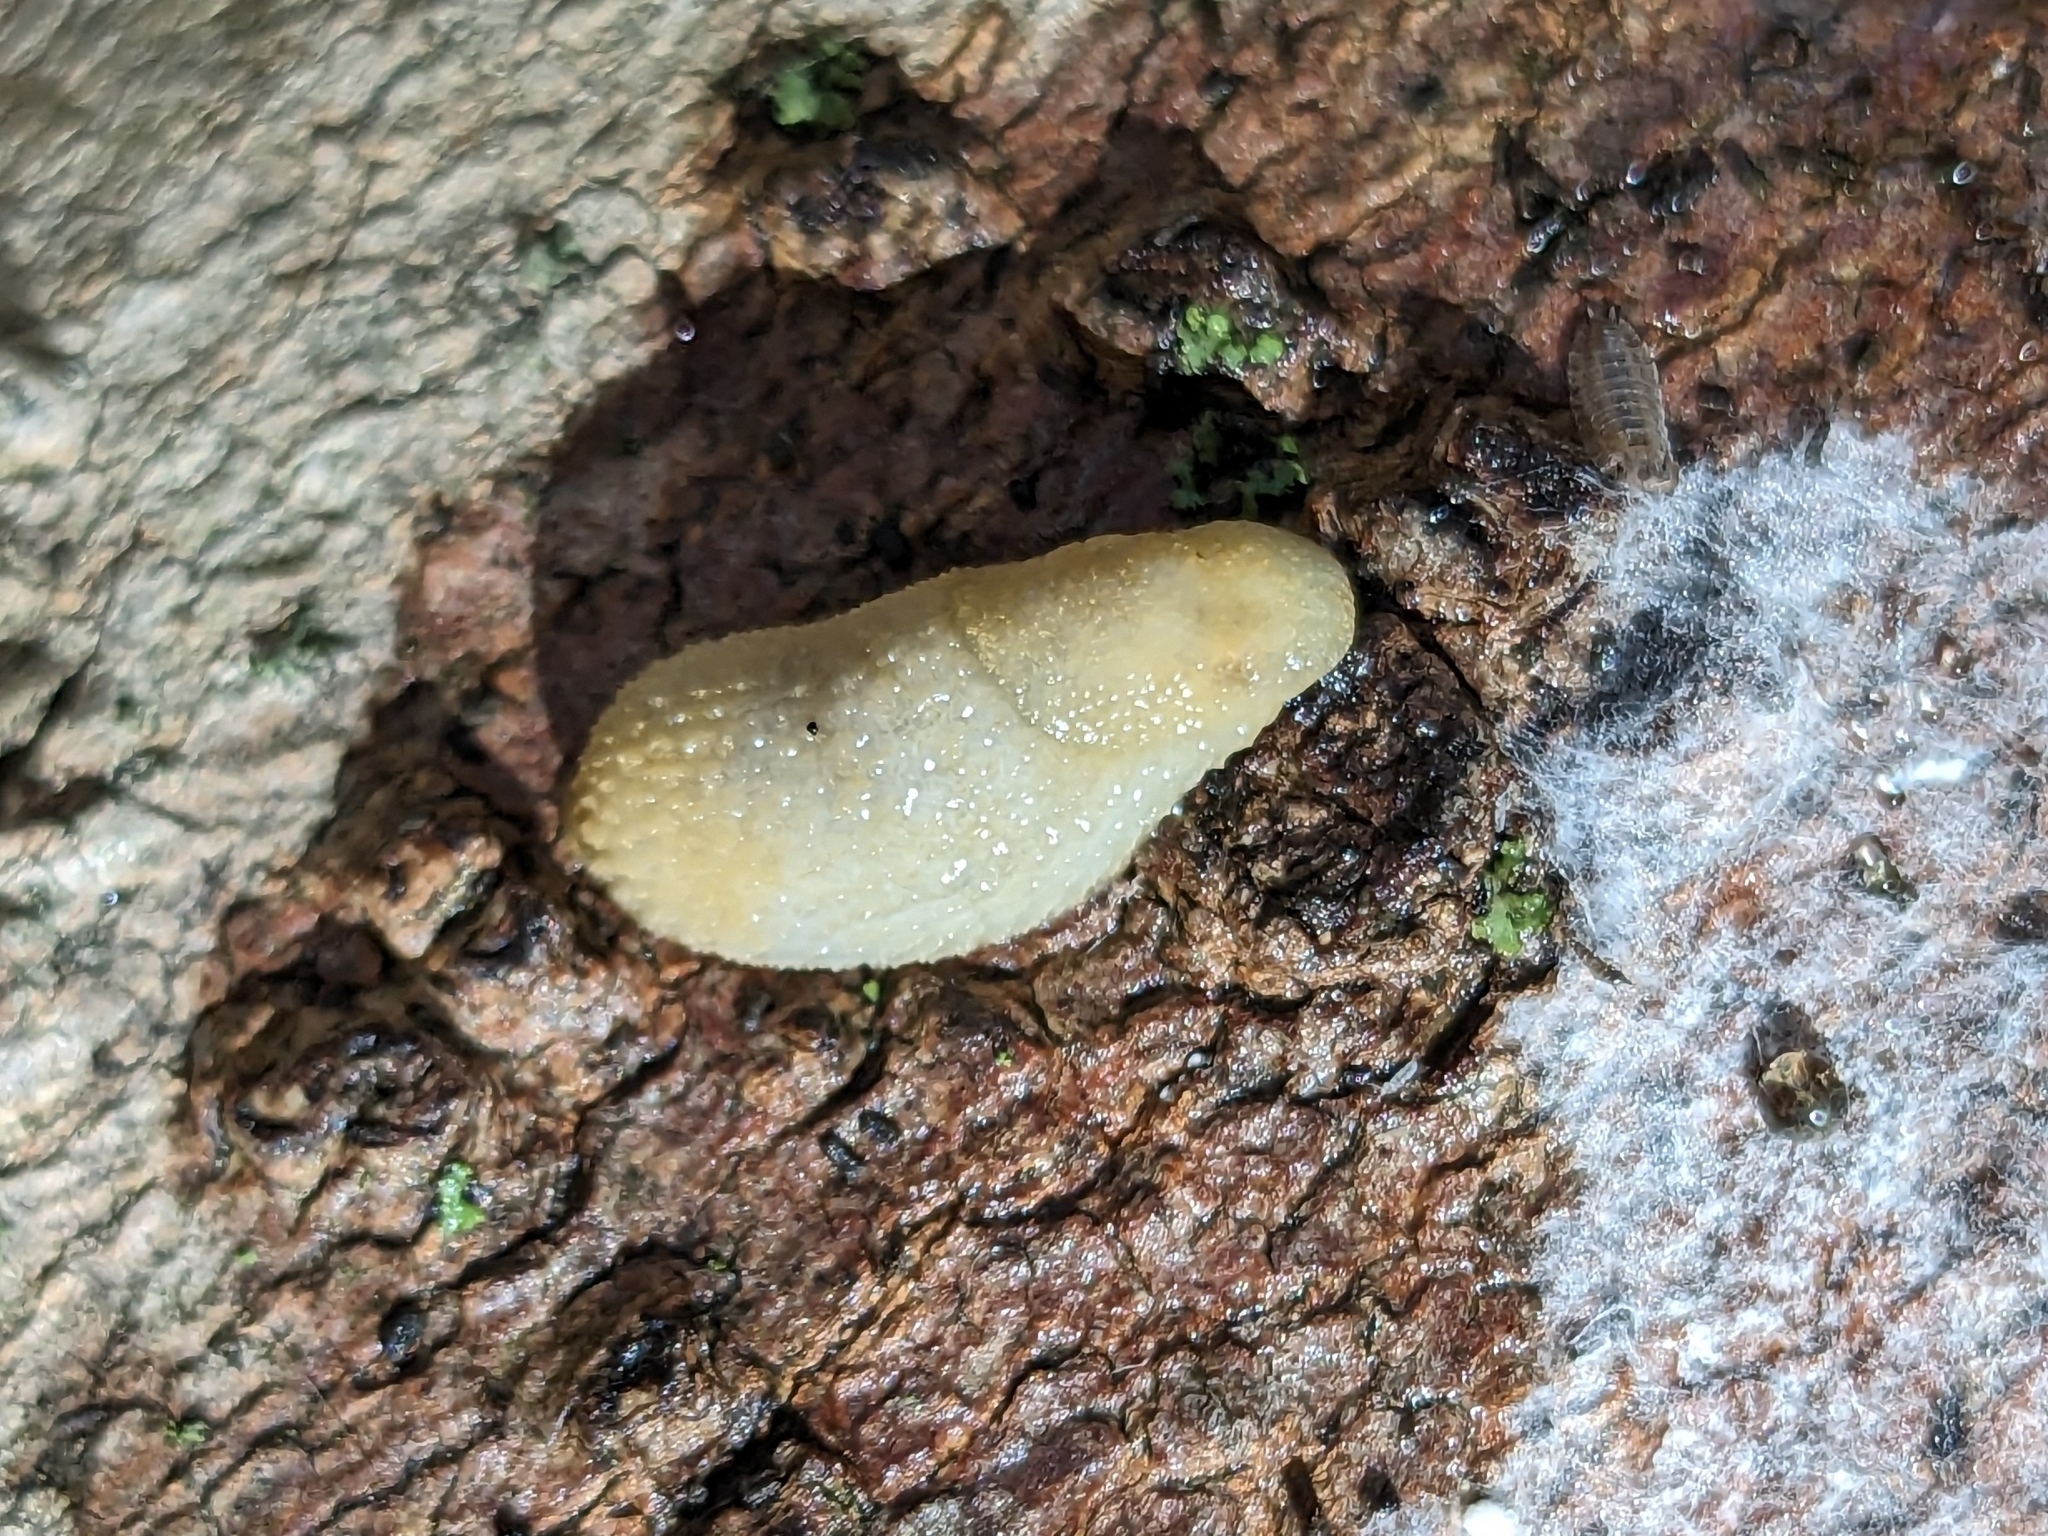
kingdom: Animalia
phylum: Mollusca
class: Gastropoda
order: Stylommatophora
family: Arionidae
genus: Arion
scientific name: Arion intermedius
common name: Hedgehog slug
